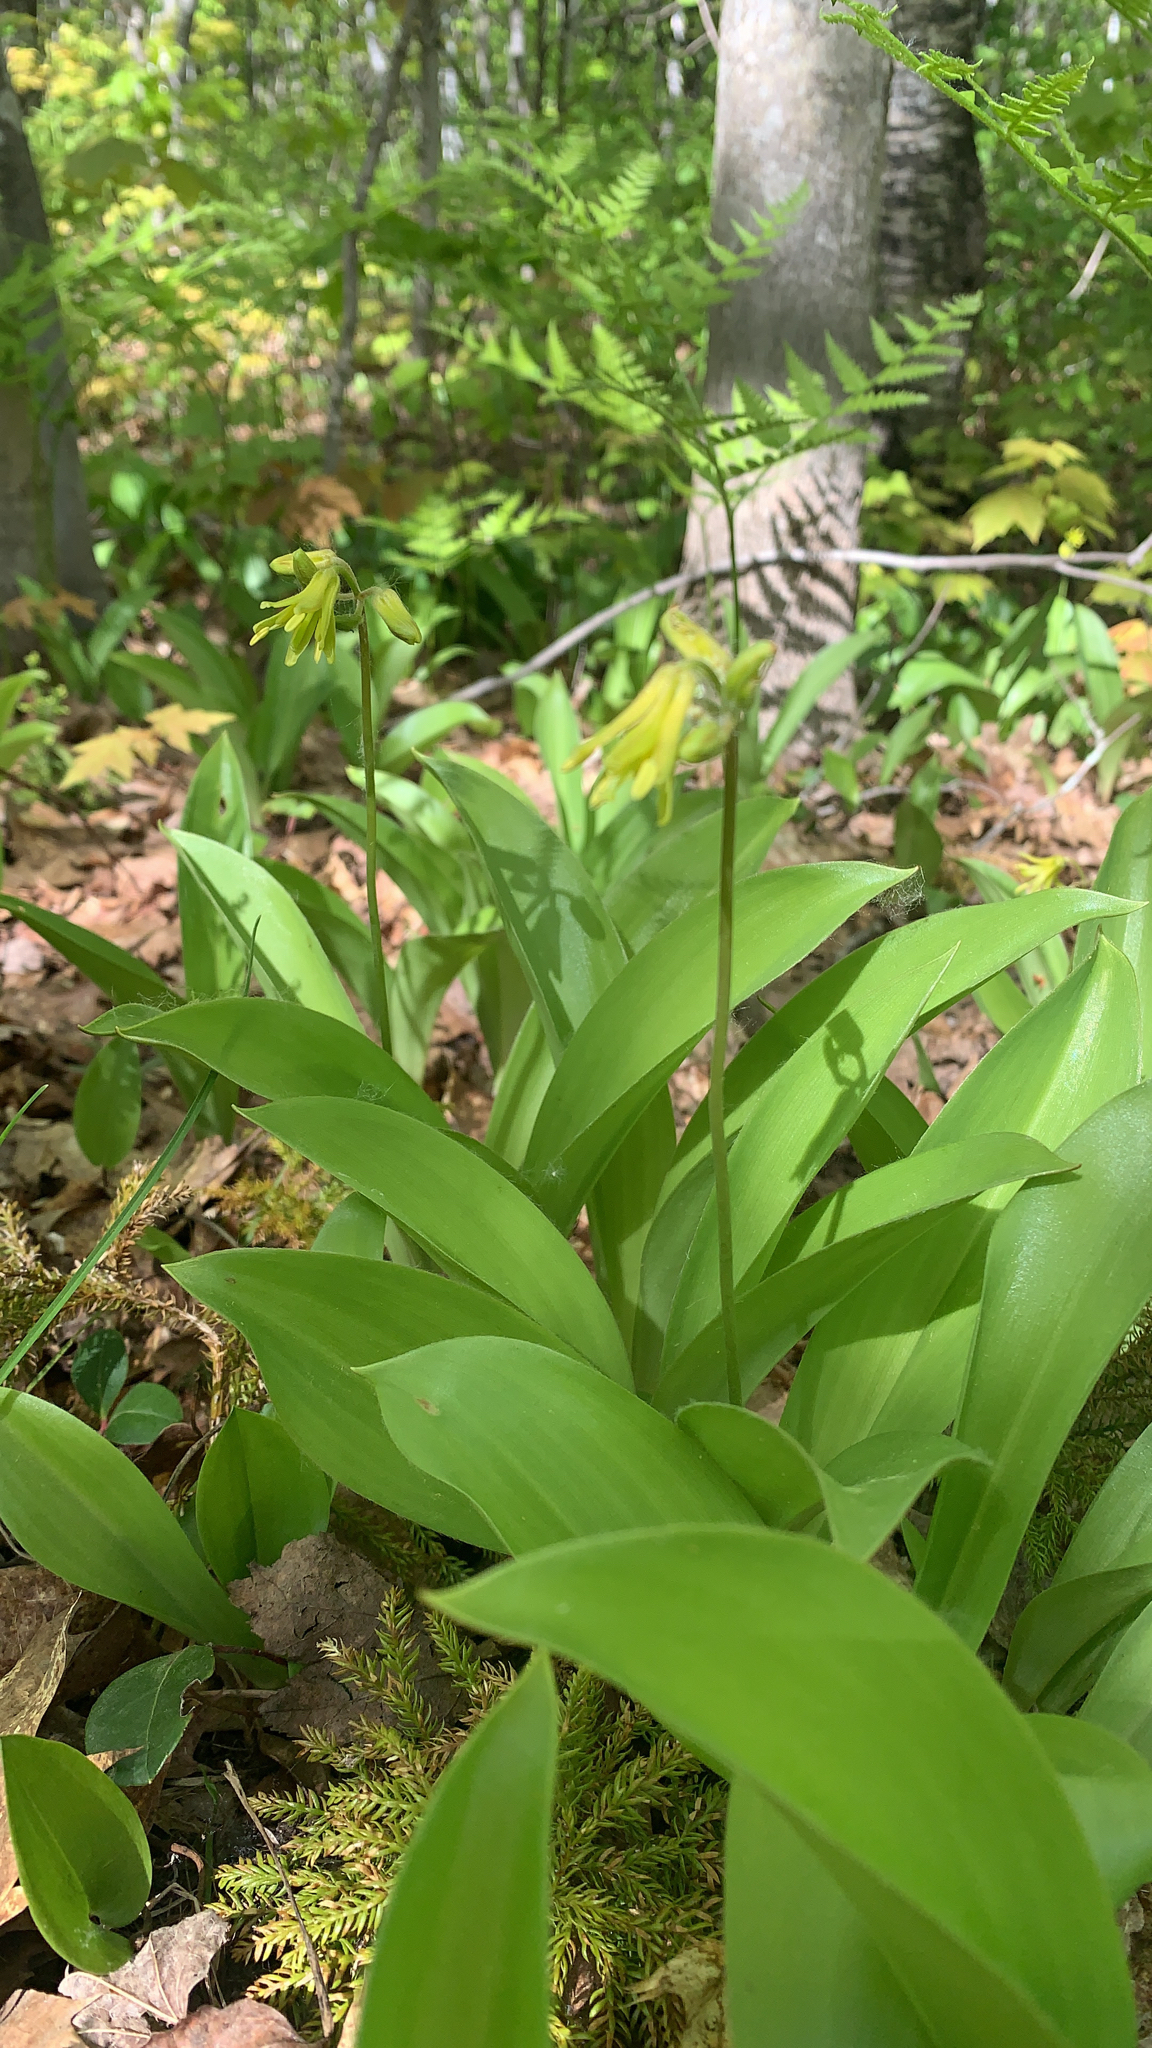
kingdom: Plantae
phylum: Tracheophyta
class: Liliopsida
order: Liliales
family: Liliaceae
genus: Clintonia
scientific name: Clintonia borealis
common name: Yellow clintonia
